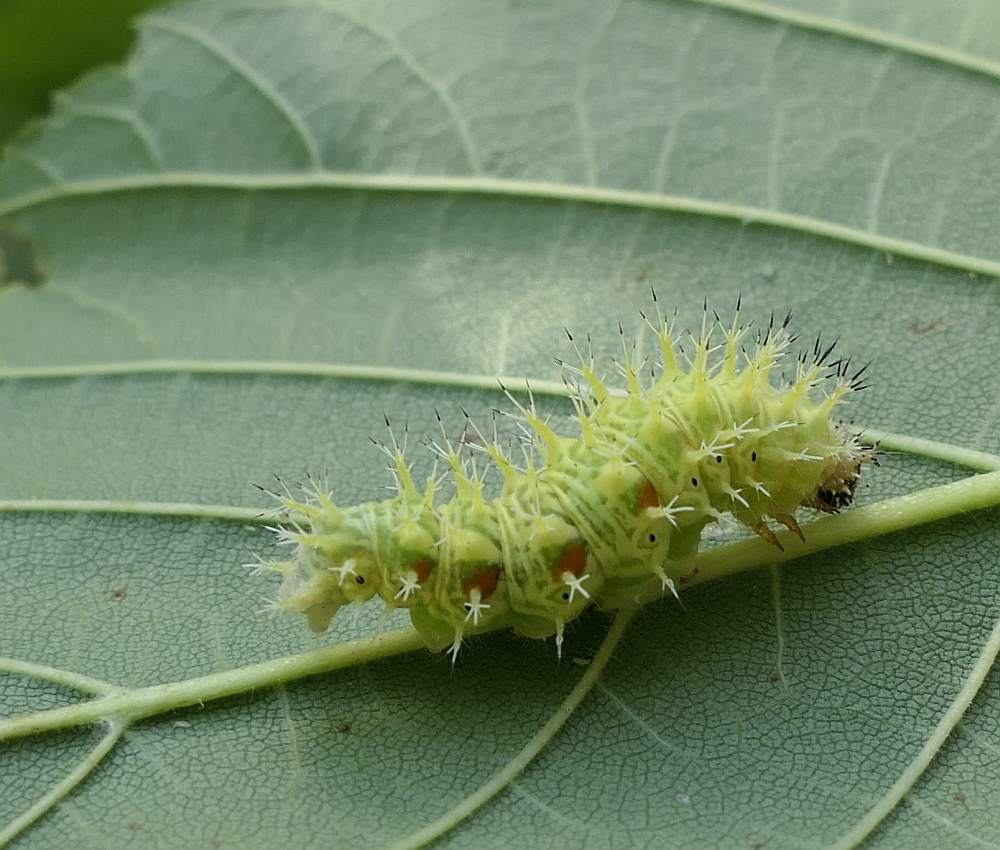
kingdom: Animalia
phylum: Arthropoda
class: Insecta
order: Lepidoptera
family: Nymphalidae
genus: Polygonia
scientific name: Polygonia comma
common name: Eastern comma
